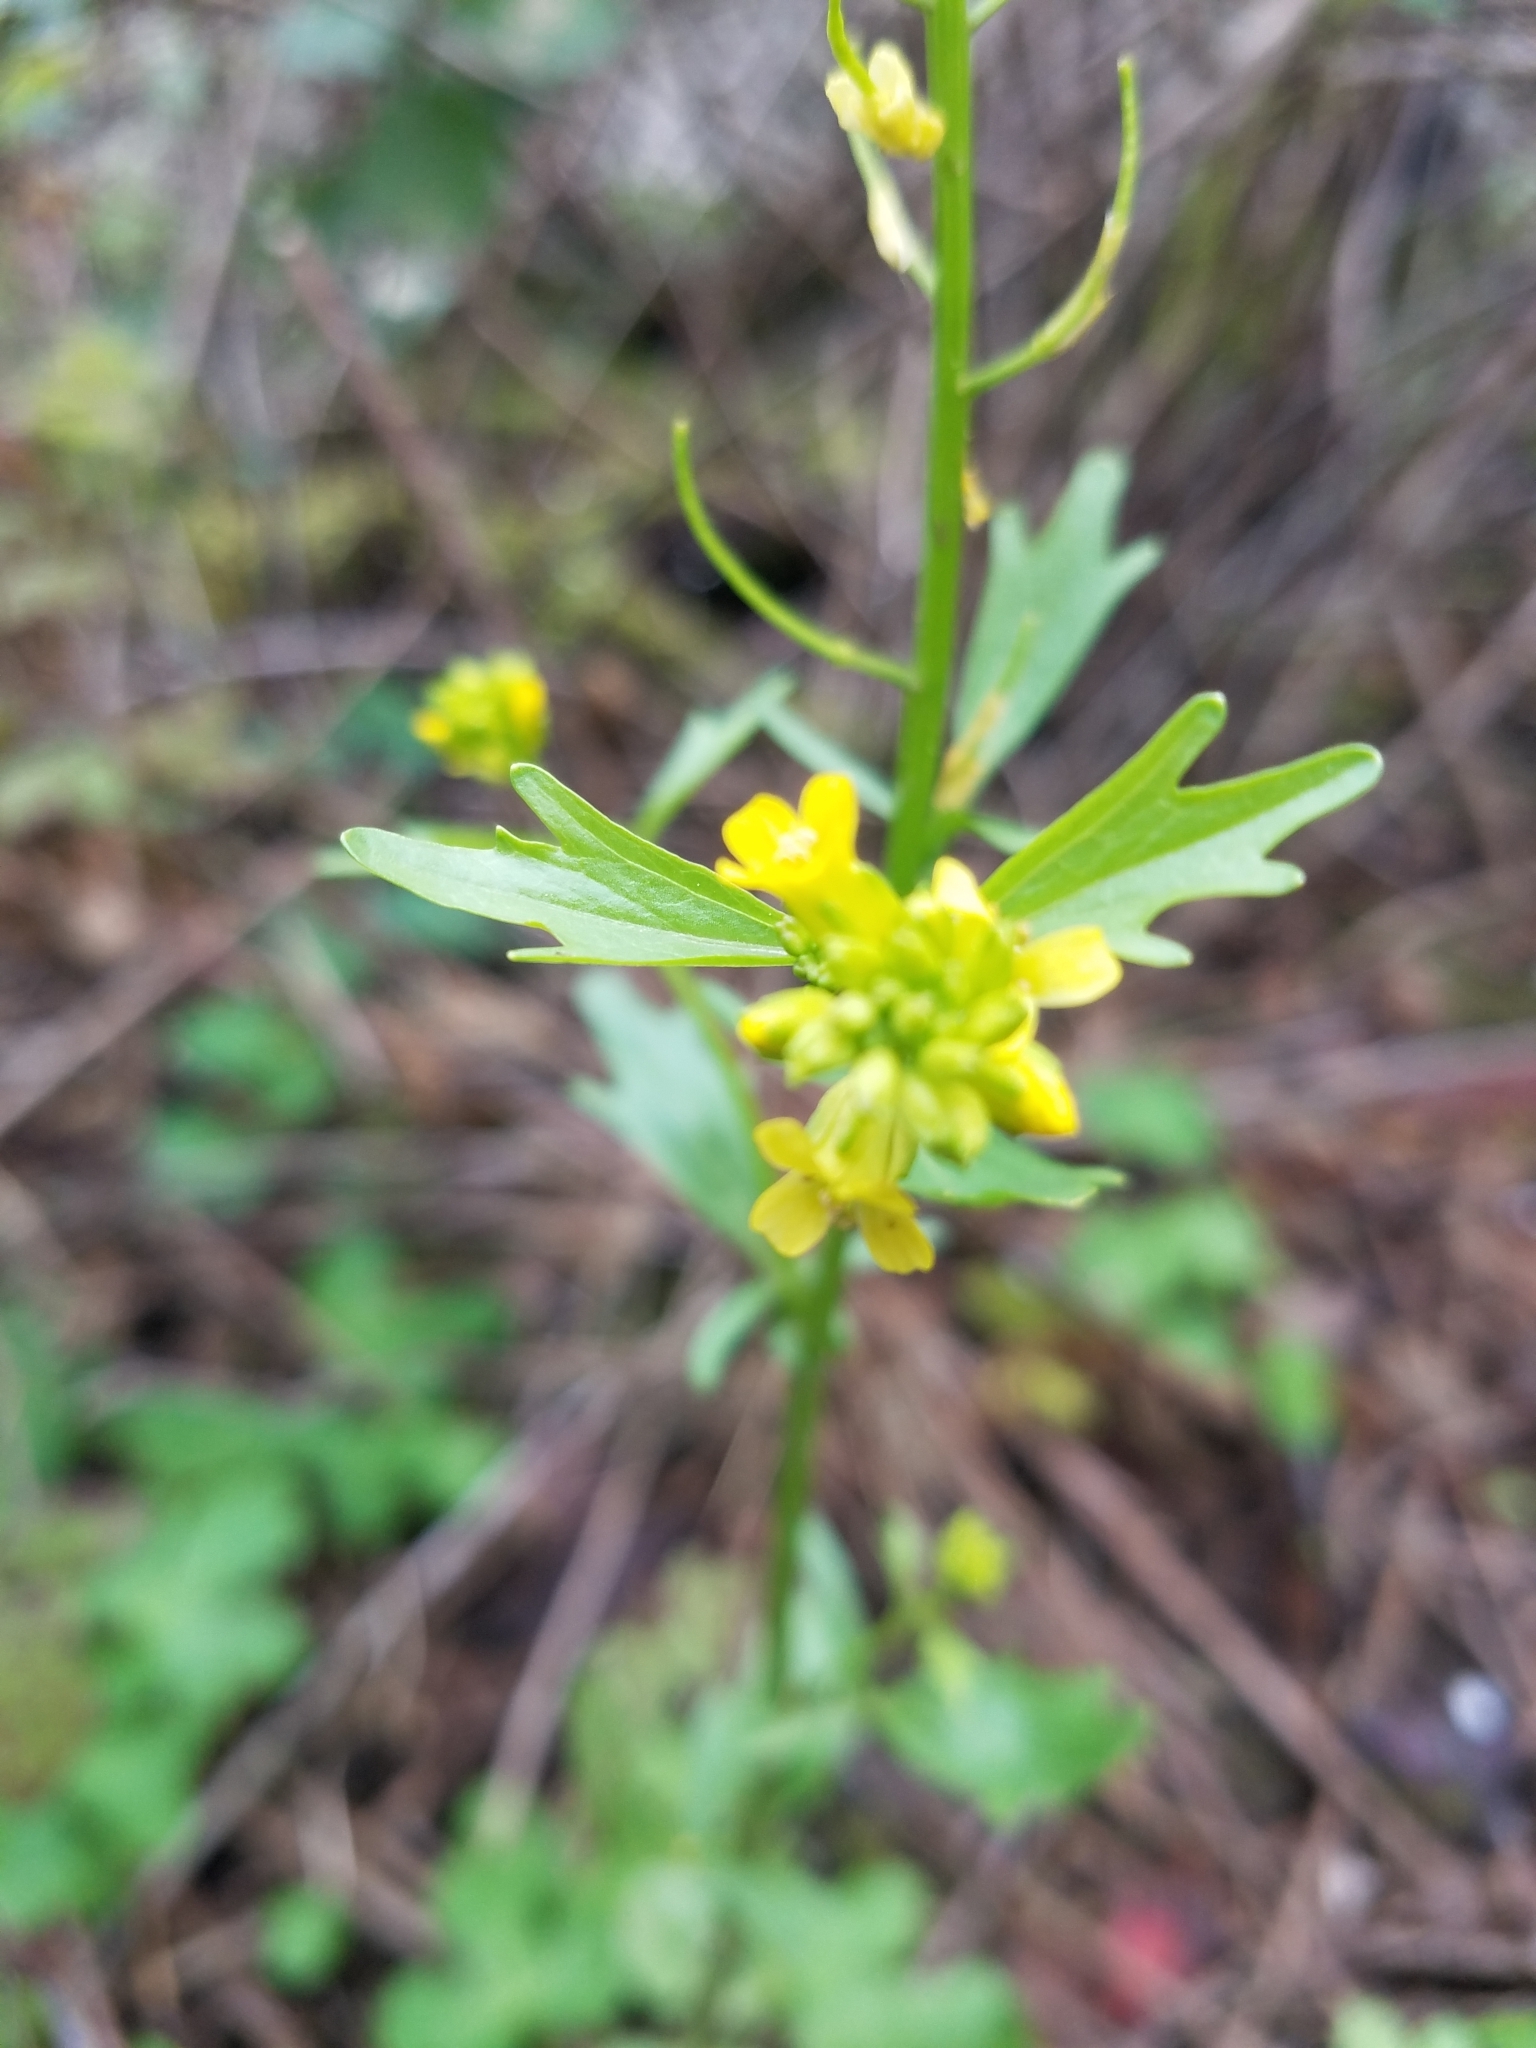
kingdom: Plantae
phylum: Tracheophyta
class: Magnoliopsida
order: Brassicales
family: Brassicaceae
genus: Barbarea
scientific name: Barbarea orthoceras
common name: American wintercress
